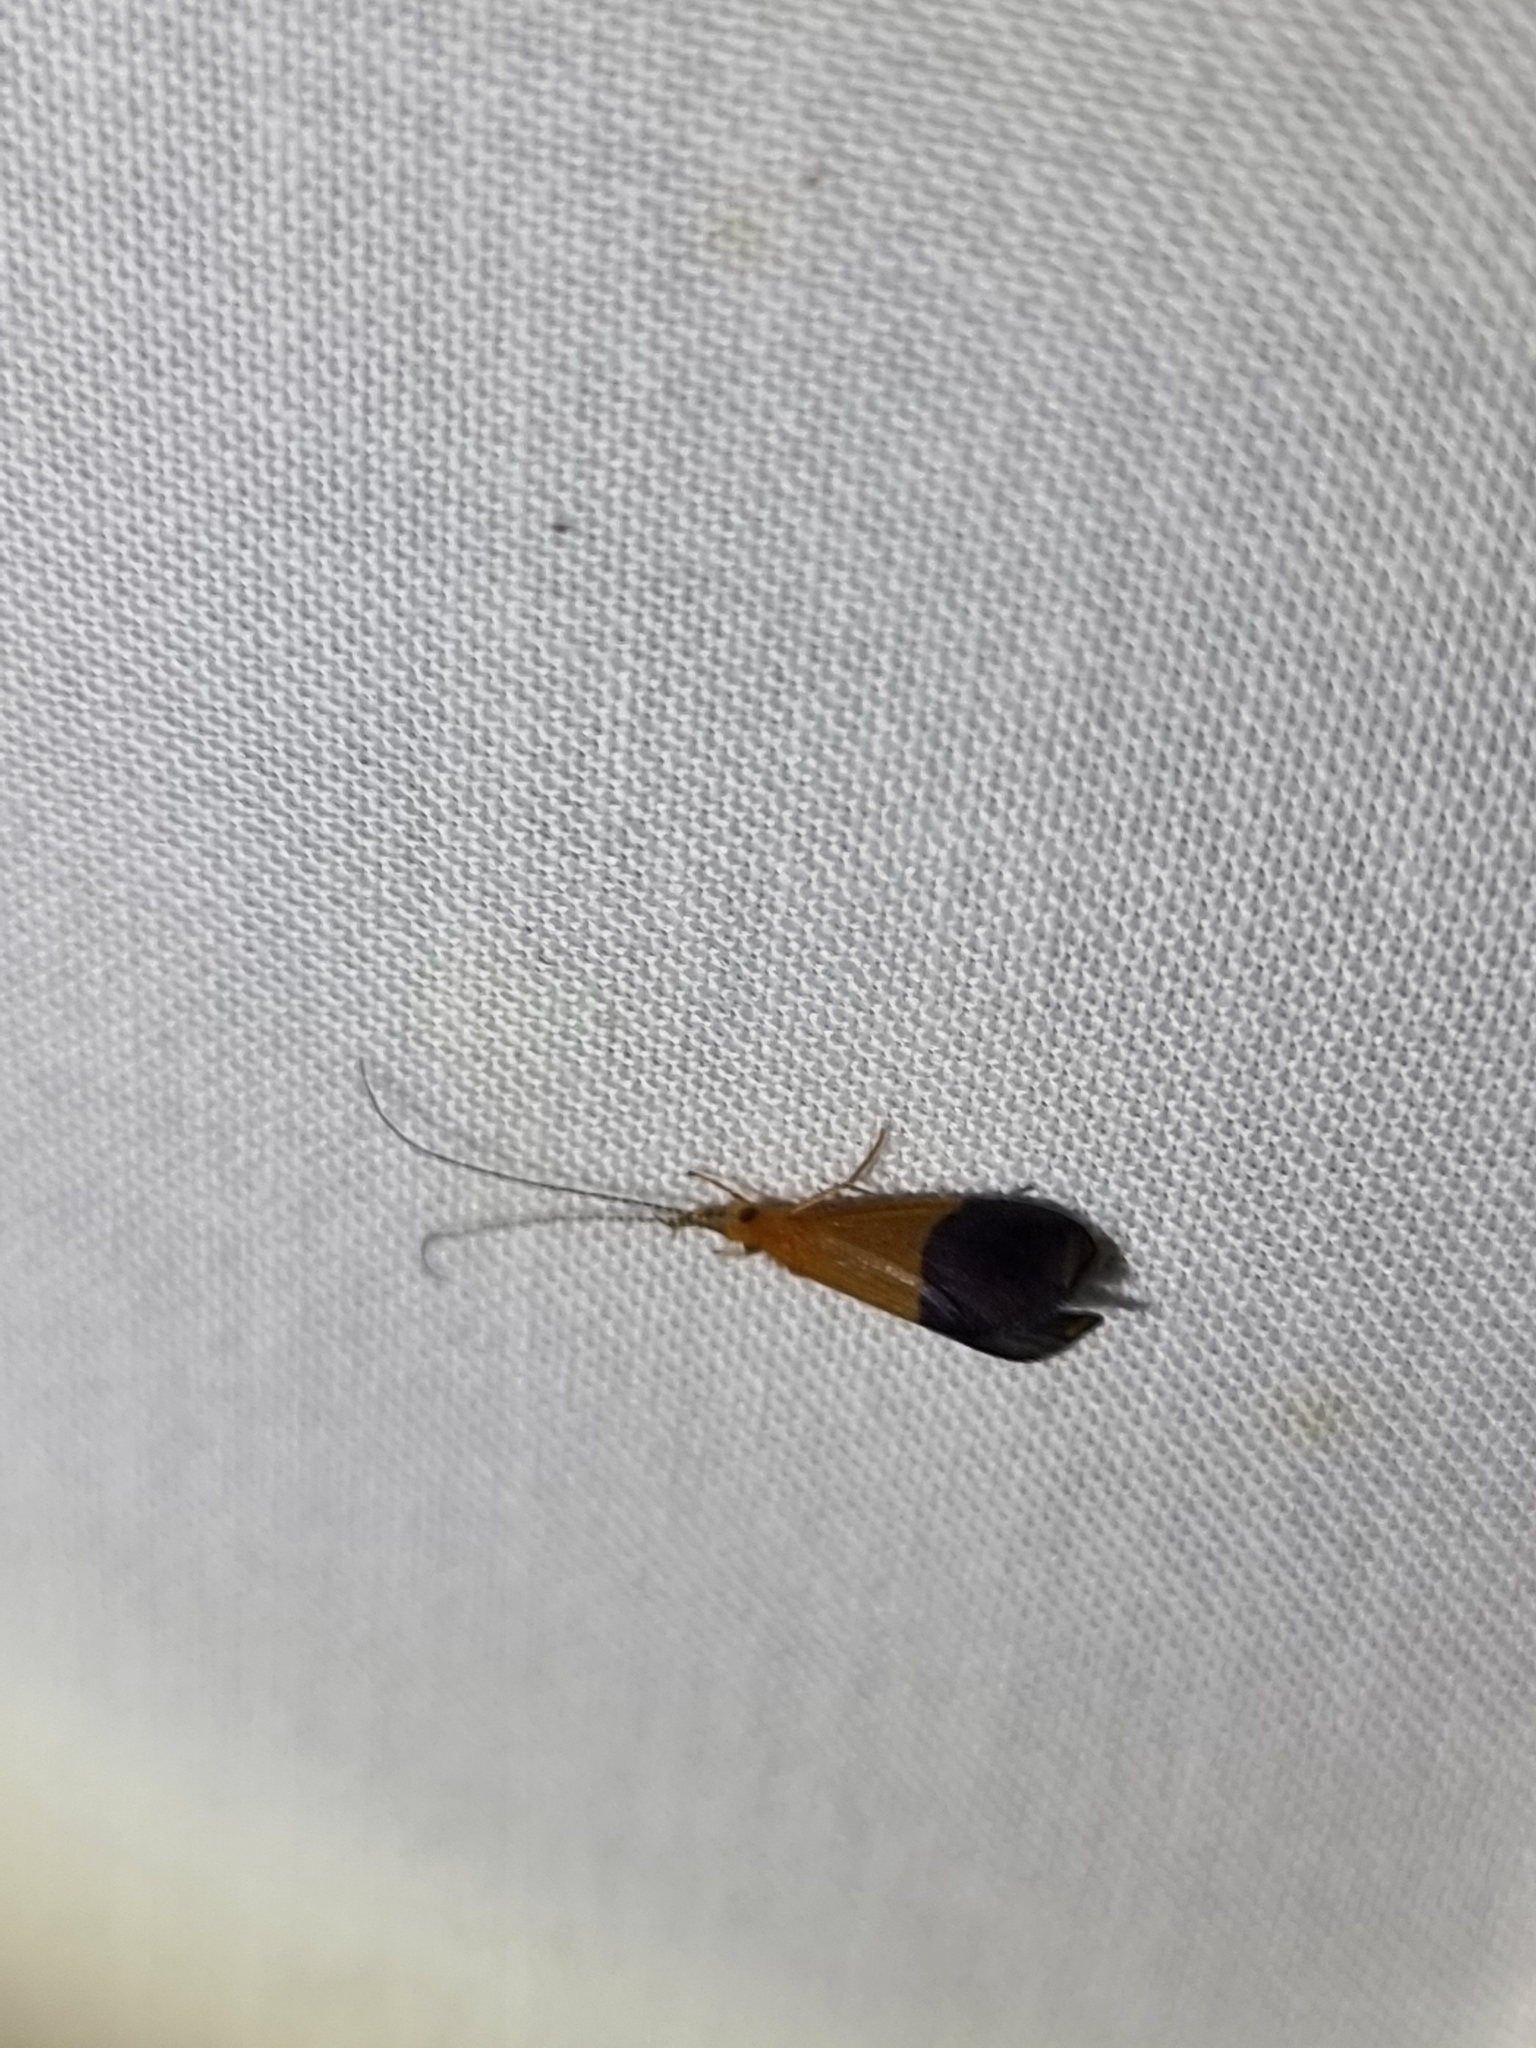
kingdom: Animalia
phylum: Arthropoda
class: Insecta
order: Trichoptera
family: Calamoceratidae
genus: Anisocentropus
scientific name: Anisocentropus bicoloratus
